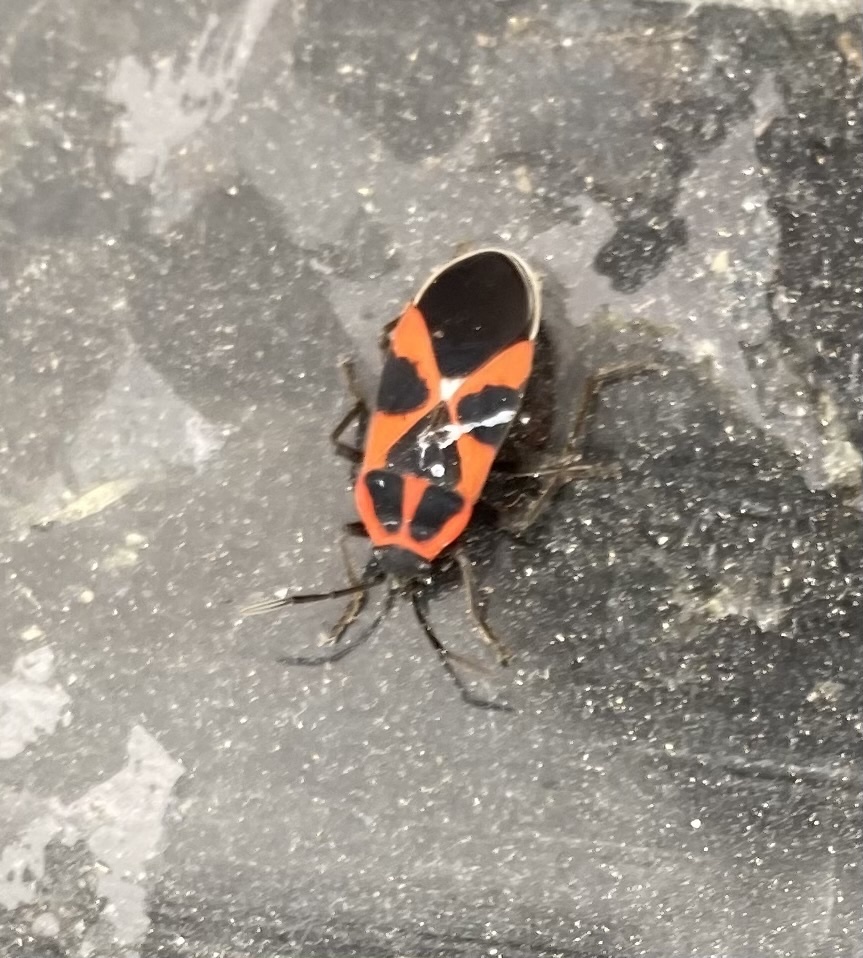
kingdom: Animalia
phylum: Arthropoda
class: Insecta
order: Hemiptera
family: Lygaeidae
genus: Tropidothorax
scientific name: Tropidothorax leucopterus
